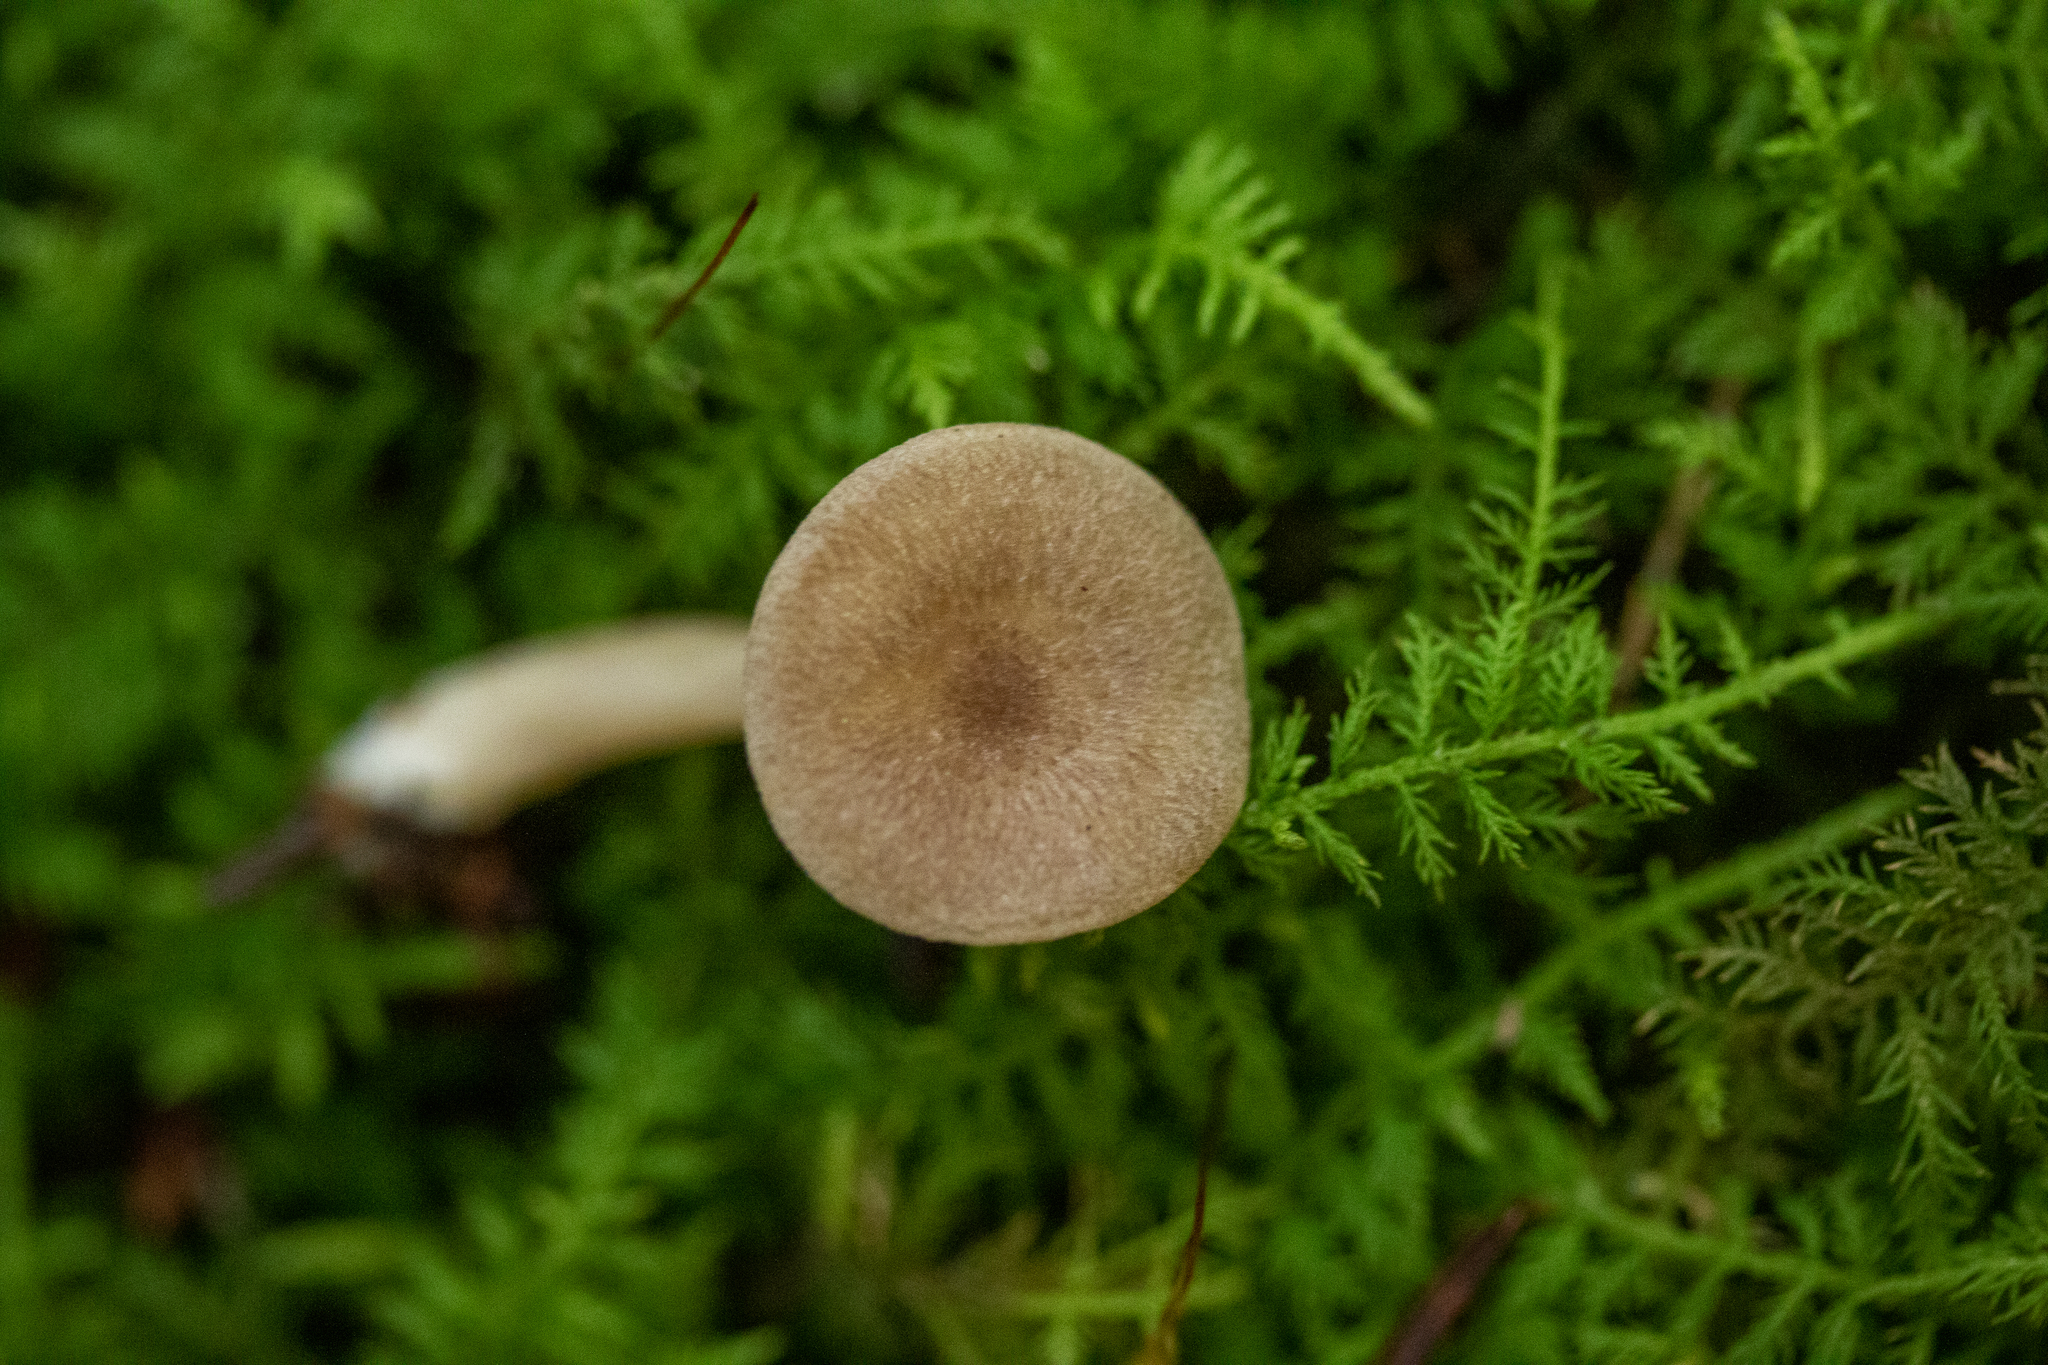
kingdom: Fungi
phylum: Basidiomycota
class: Agaricomycetes
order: Russulales
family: Russulaceae
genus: Lactarius
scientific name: Lactarius griseus
